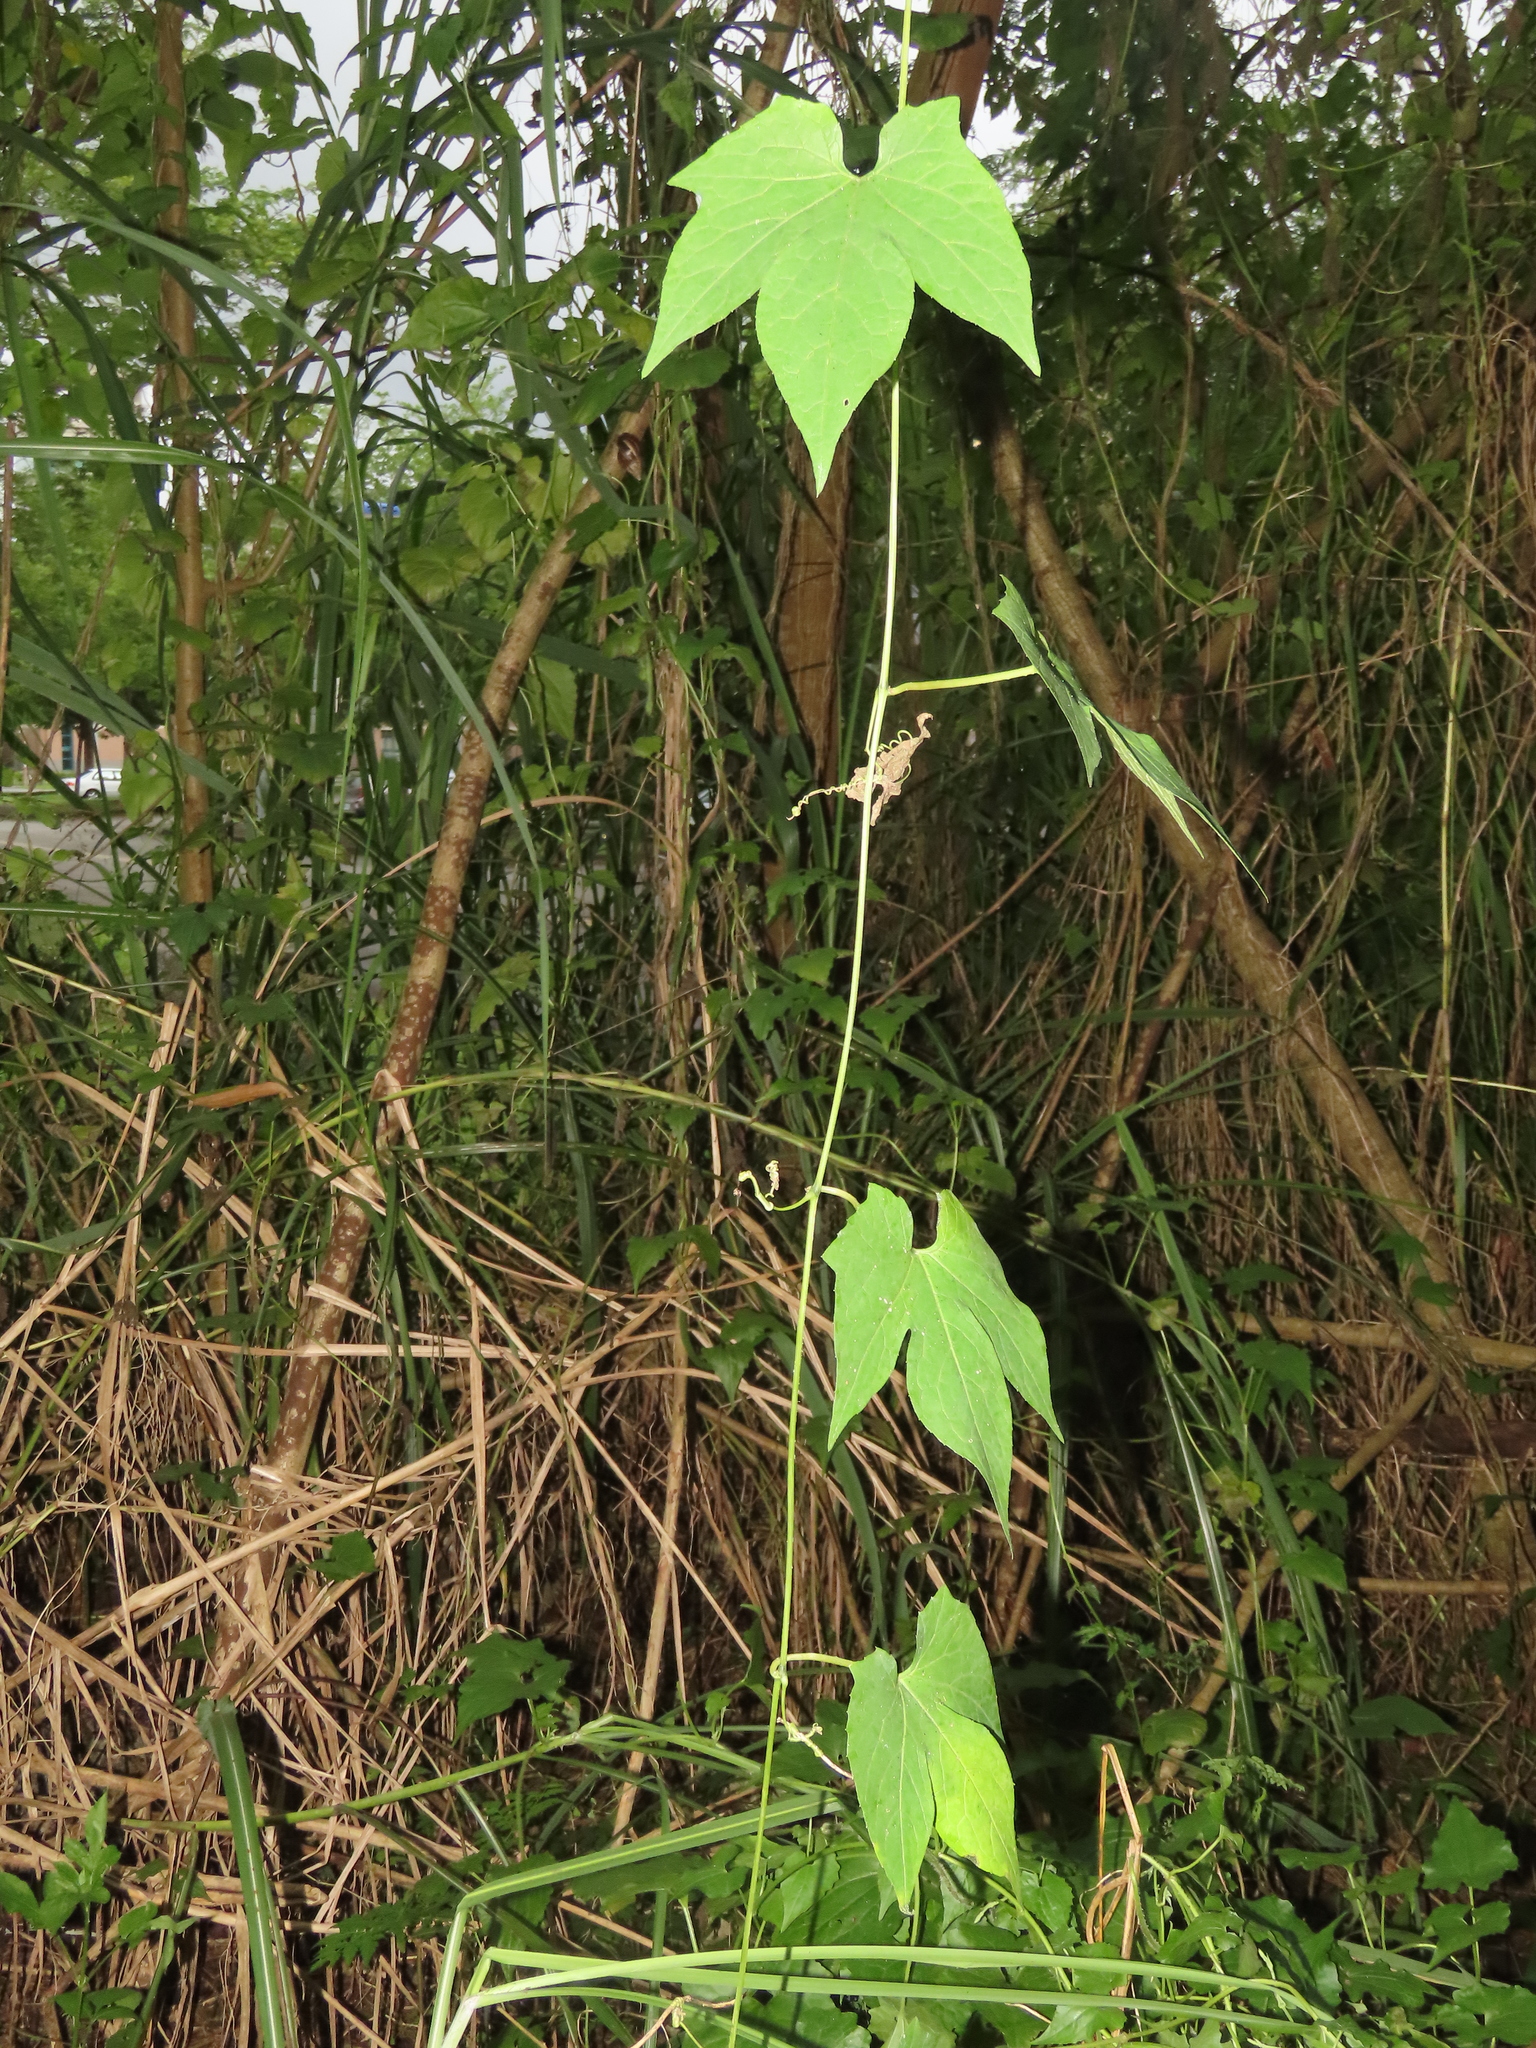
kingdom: Plantae
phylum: Tracheophyta
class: Magnoliopsida
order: Cucurbitales
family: Cucurbitaceae
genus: Diplocyclos
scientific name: Diplocyclos palmatus
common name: Striped-cucumber
